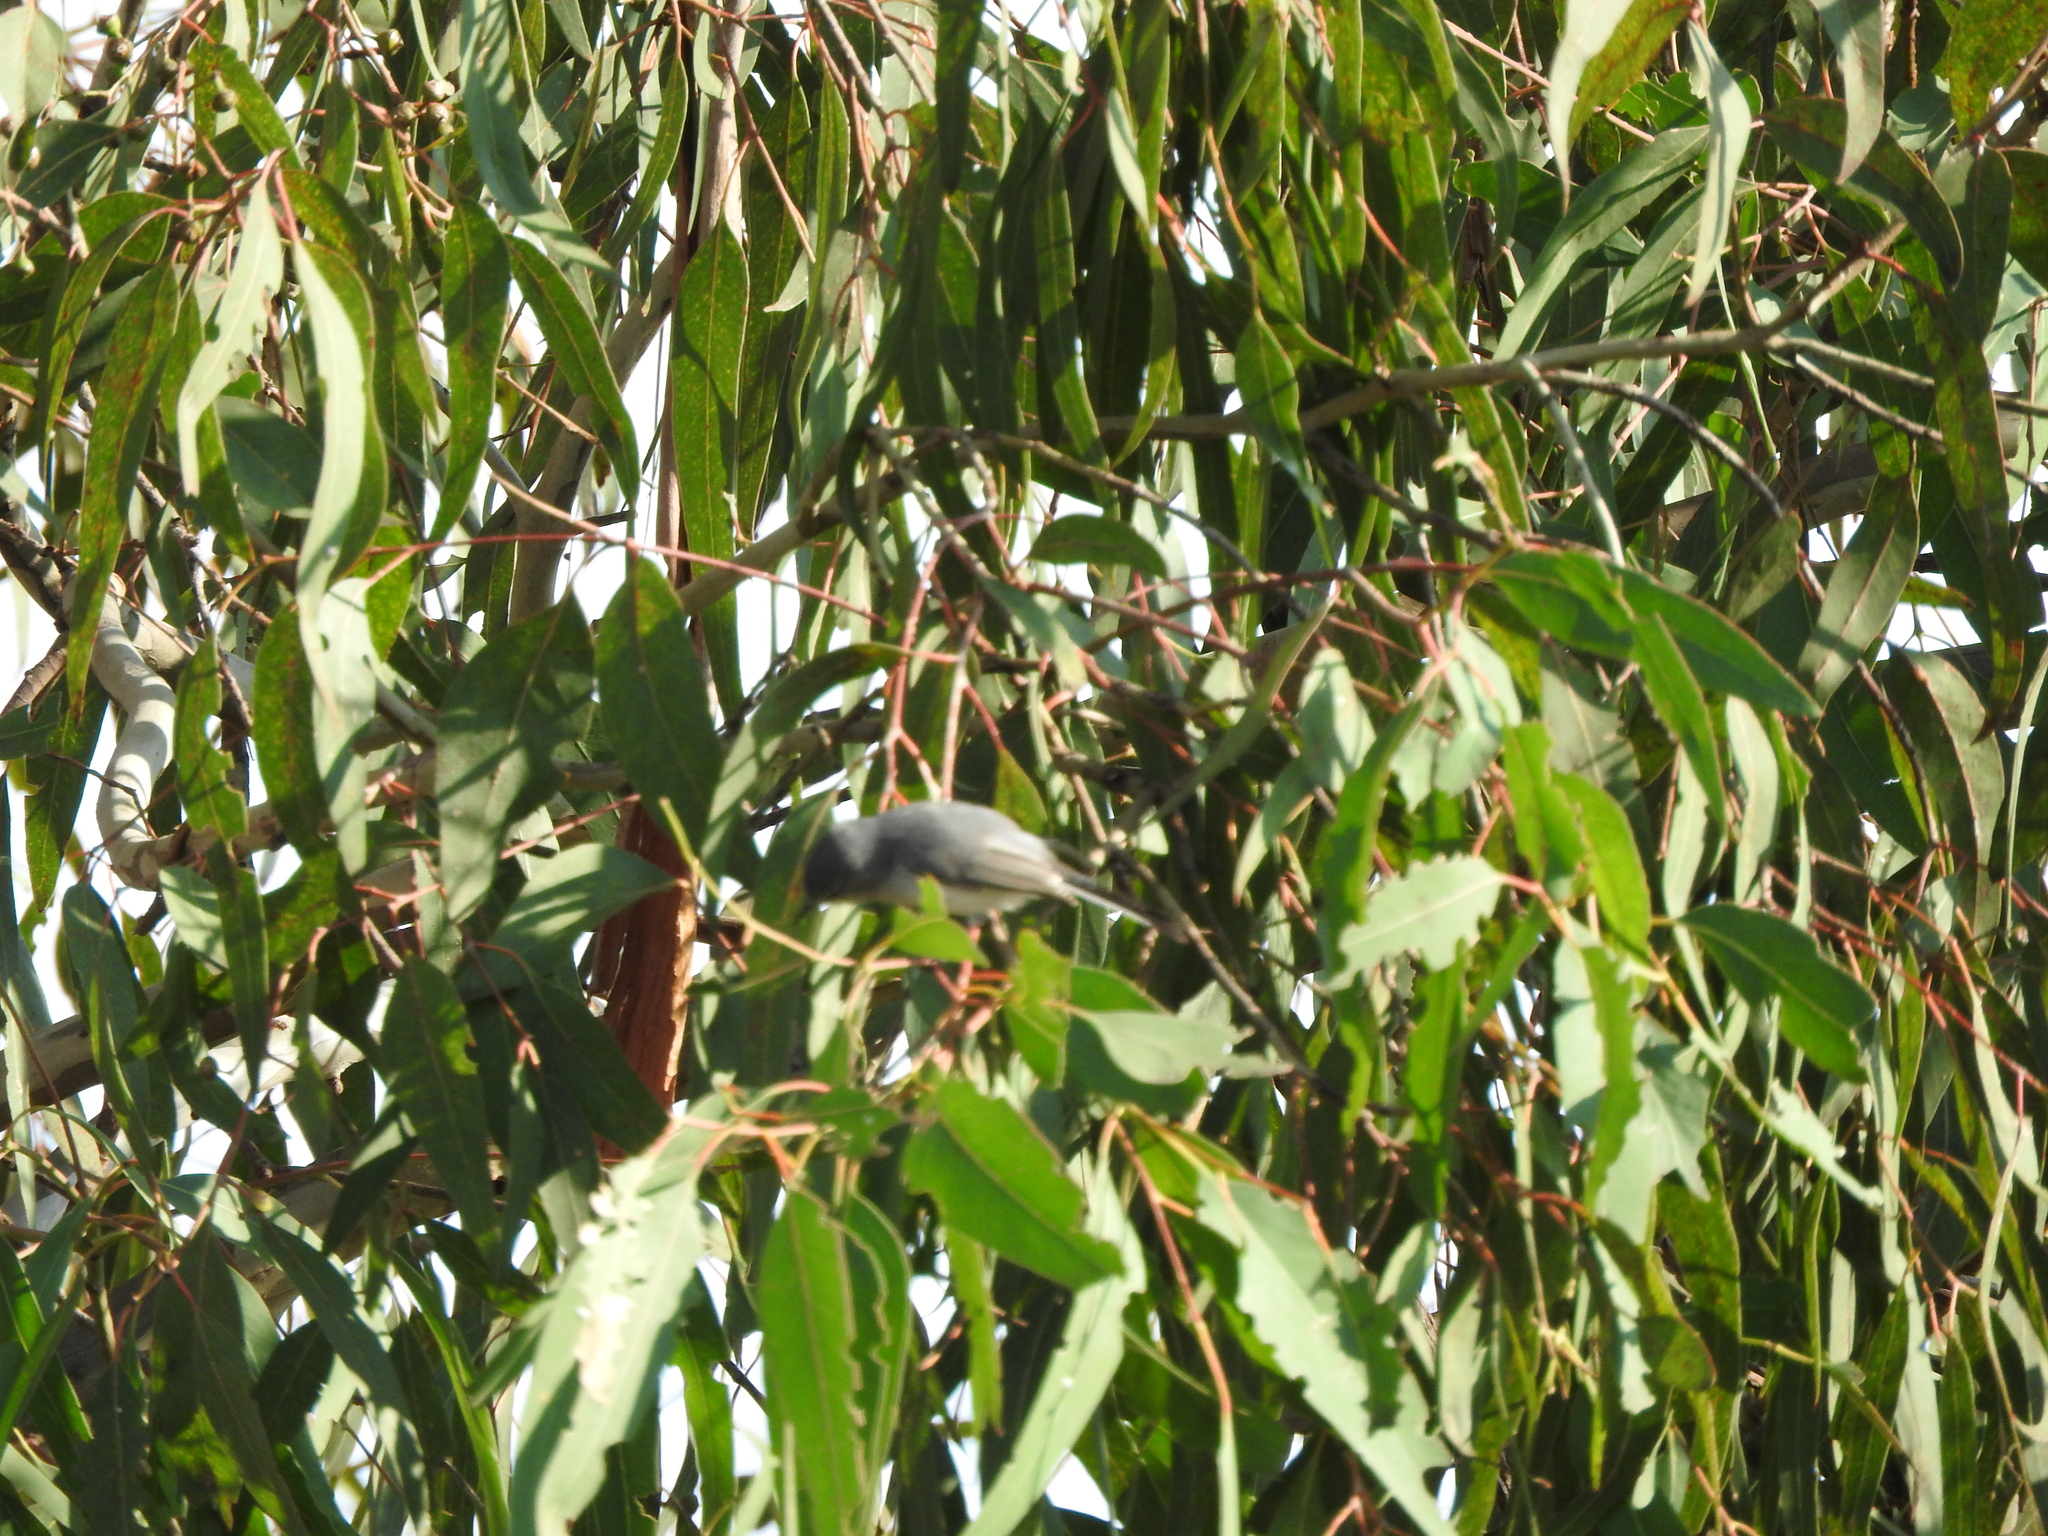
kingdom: Animalia
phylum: Chordata
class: Aves
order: Passeriformes
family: Polioptilidae
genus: Polioptila
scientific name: Polioptila caerulea
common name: Blue-gray gnatcatcher
